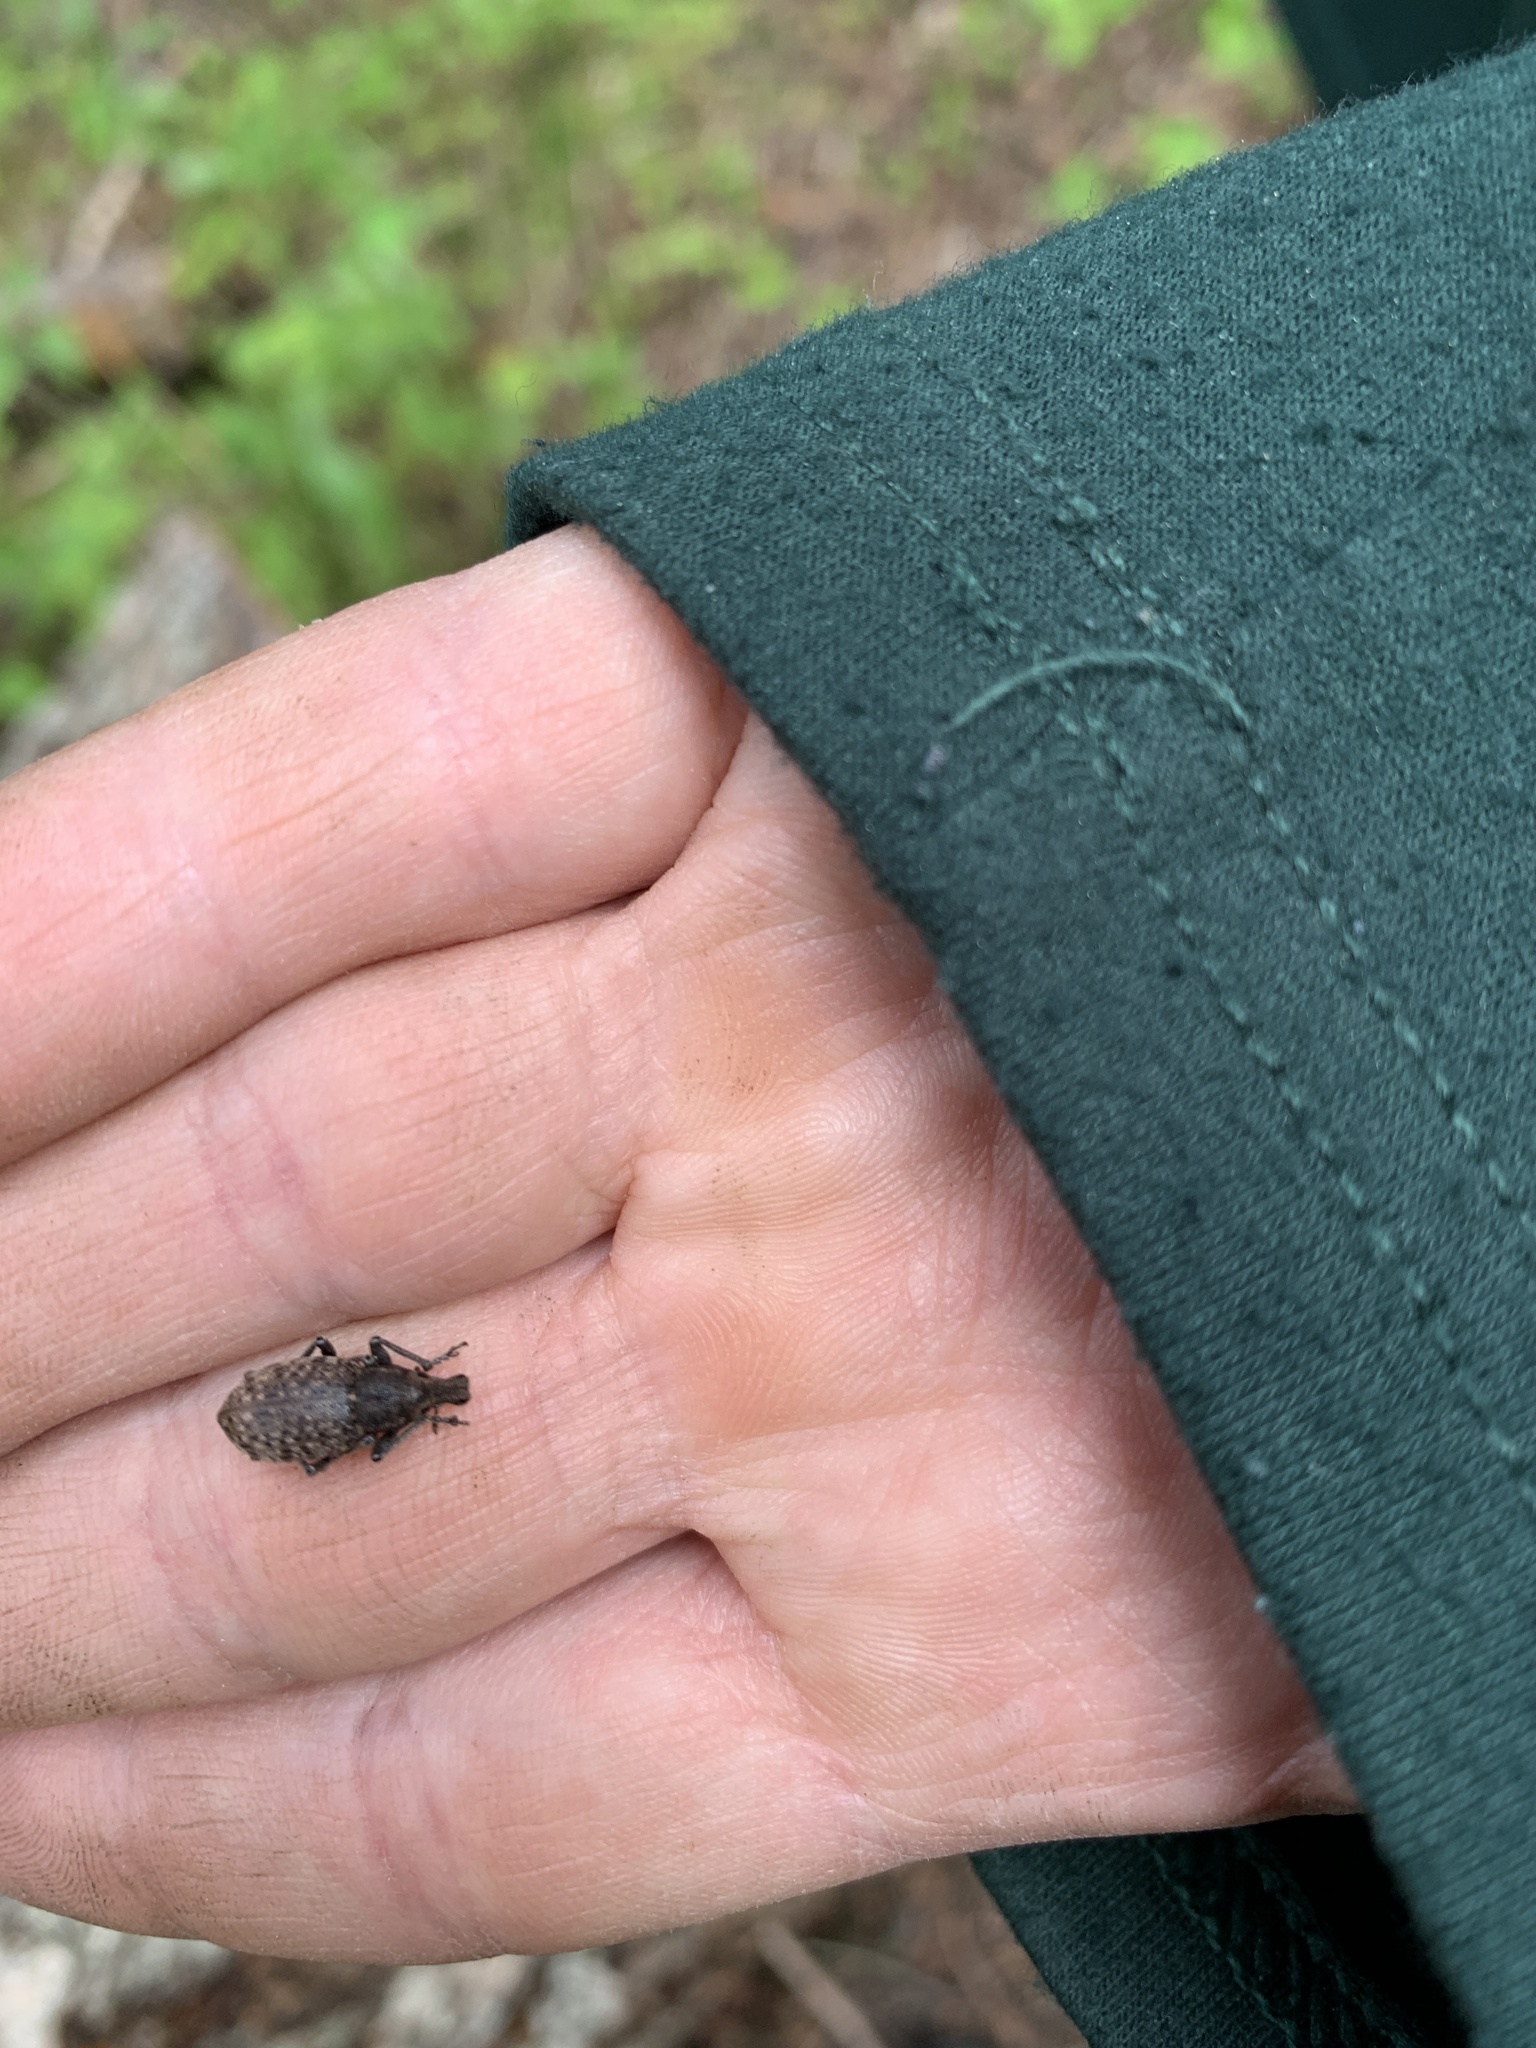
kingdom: Animalia
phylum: Arthropoda
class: Insecta
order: Coleoptera
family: Curculionidae
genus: Trichalophus
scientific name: Trichalophus alternatus
